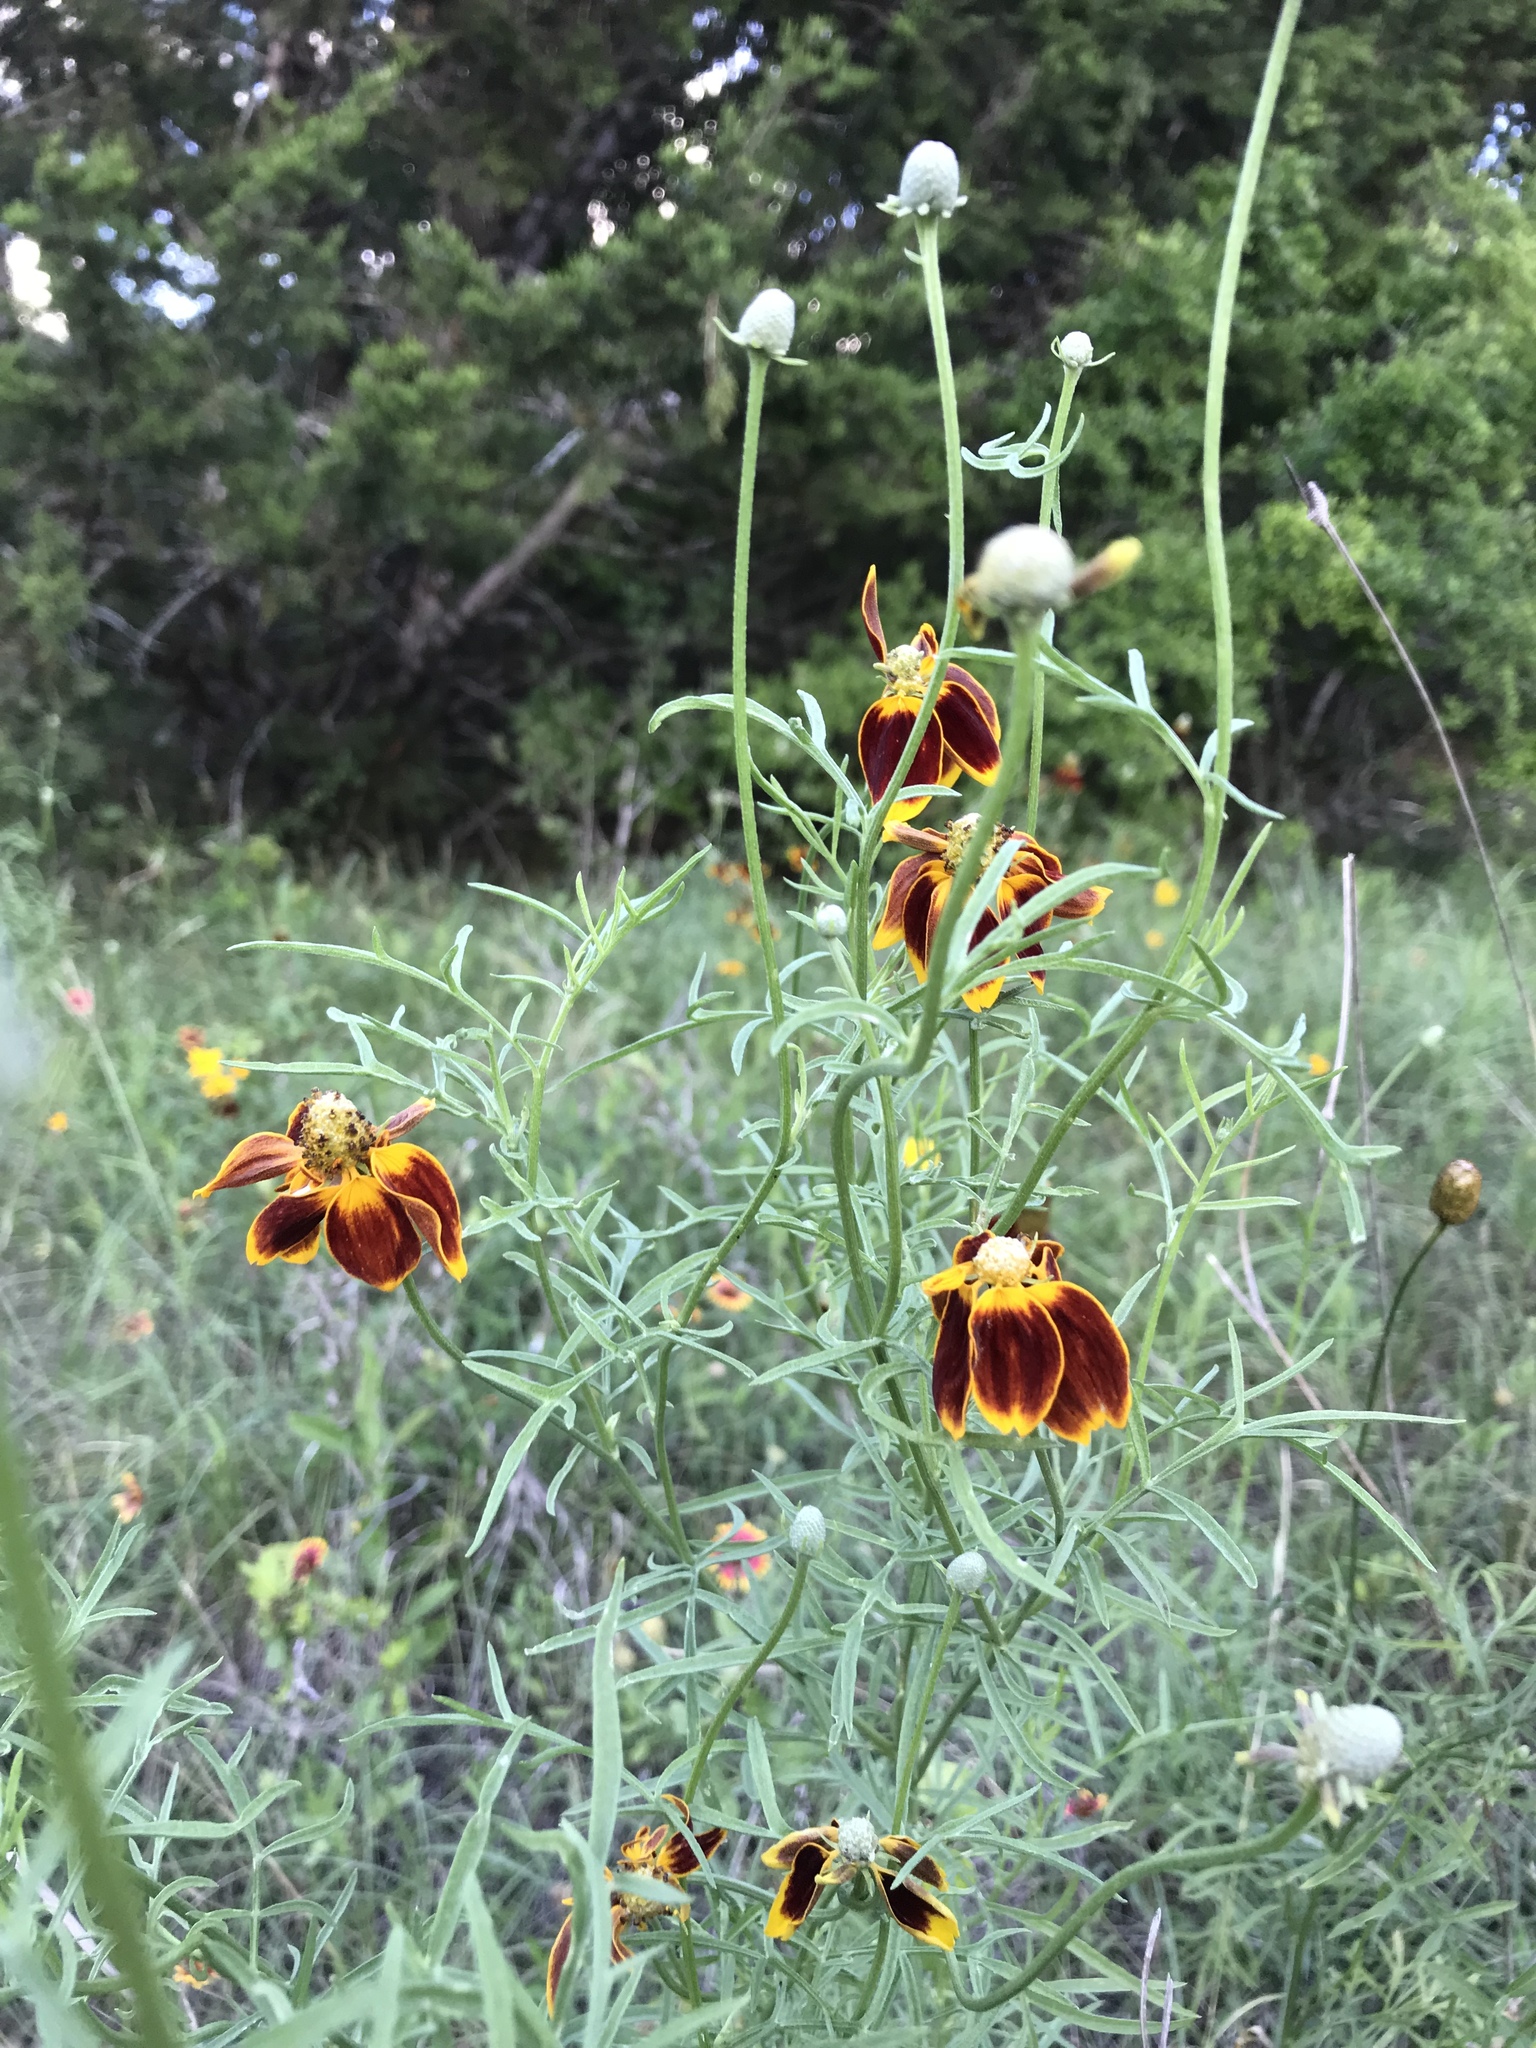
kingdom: Plantae
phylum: Tracheophyta
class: Magnoliopsida
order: Asterales
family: Asteraceae
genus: Ratibida
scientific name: Ratibida columnifera
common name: Prairie coneflower
